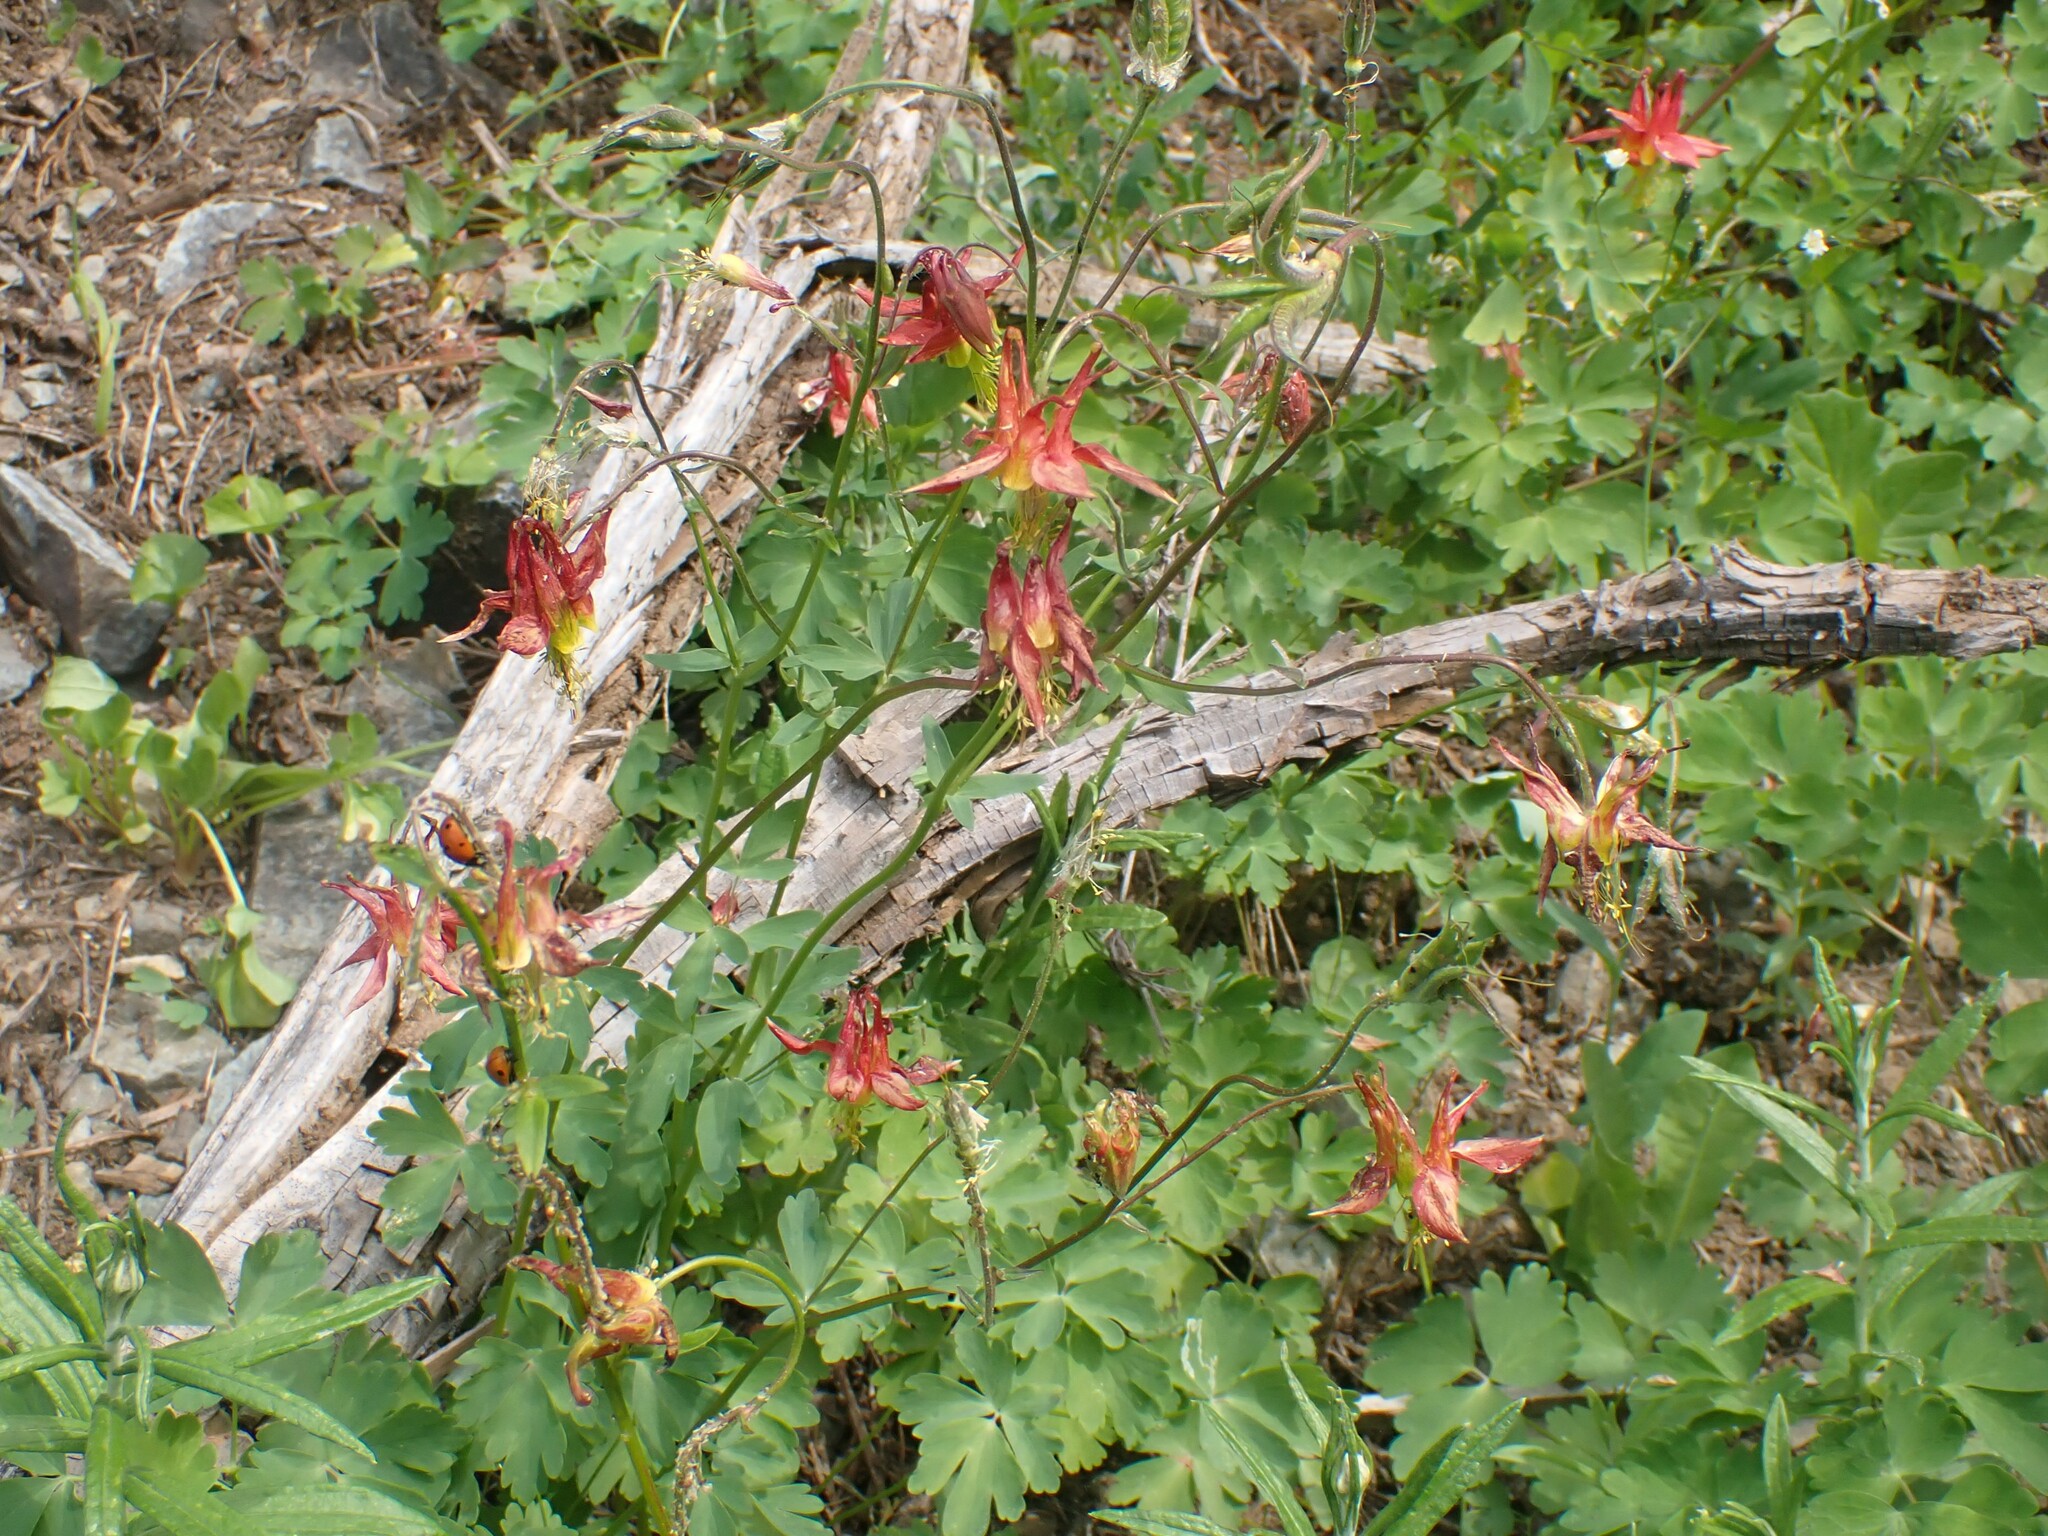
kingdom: Plantae
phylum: Tracheophyta
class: Magnoliopsida
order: Ranunculales
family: Ranunculaceae
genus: Aquilegia
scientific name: Aquilegia formosa
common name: Sitka columbine
